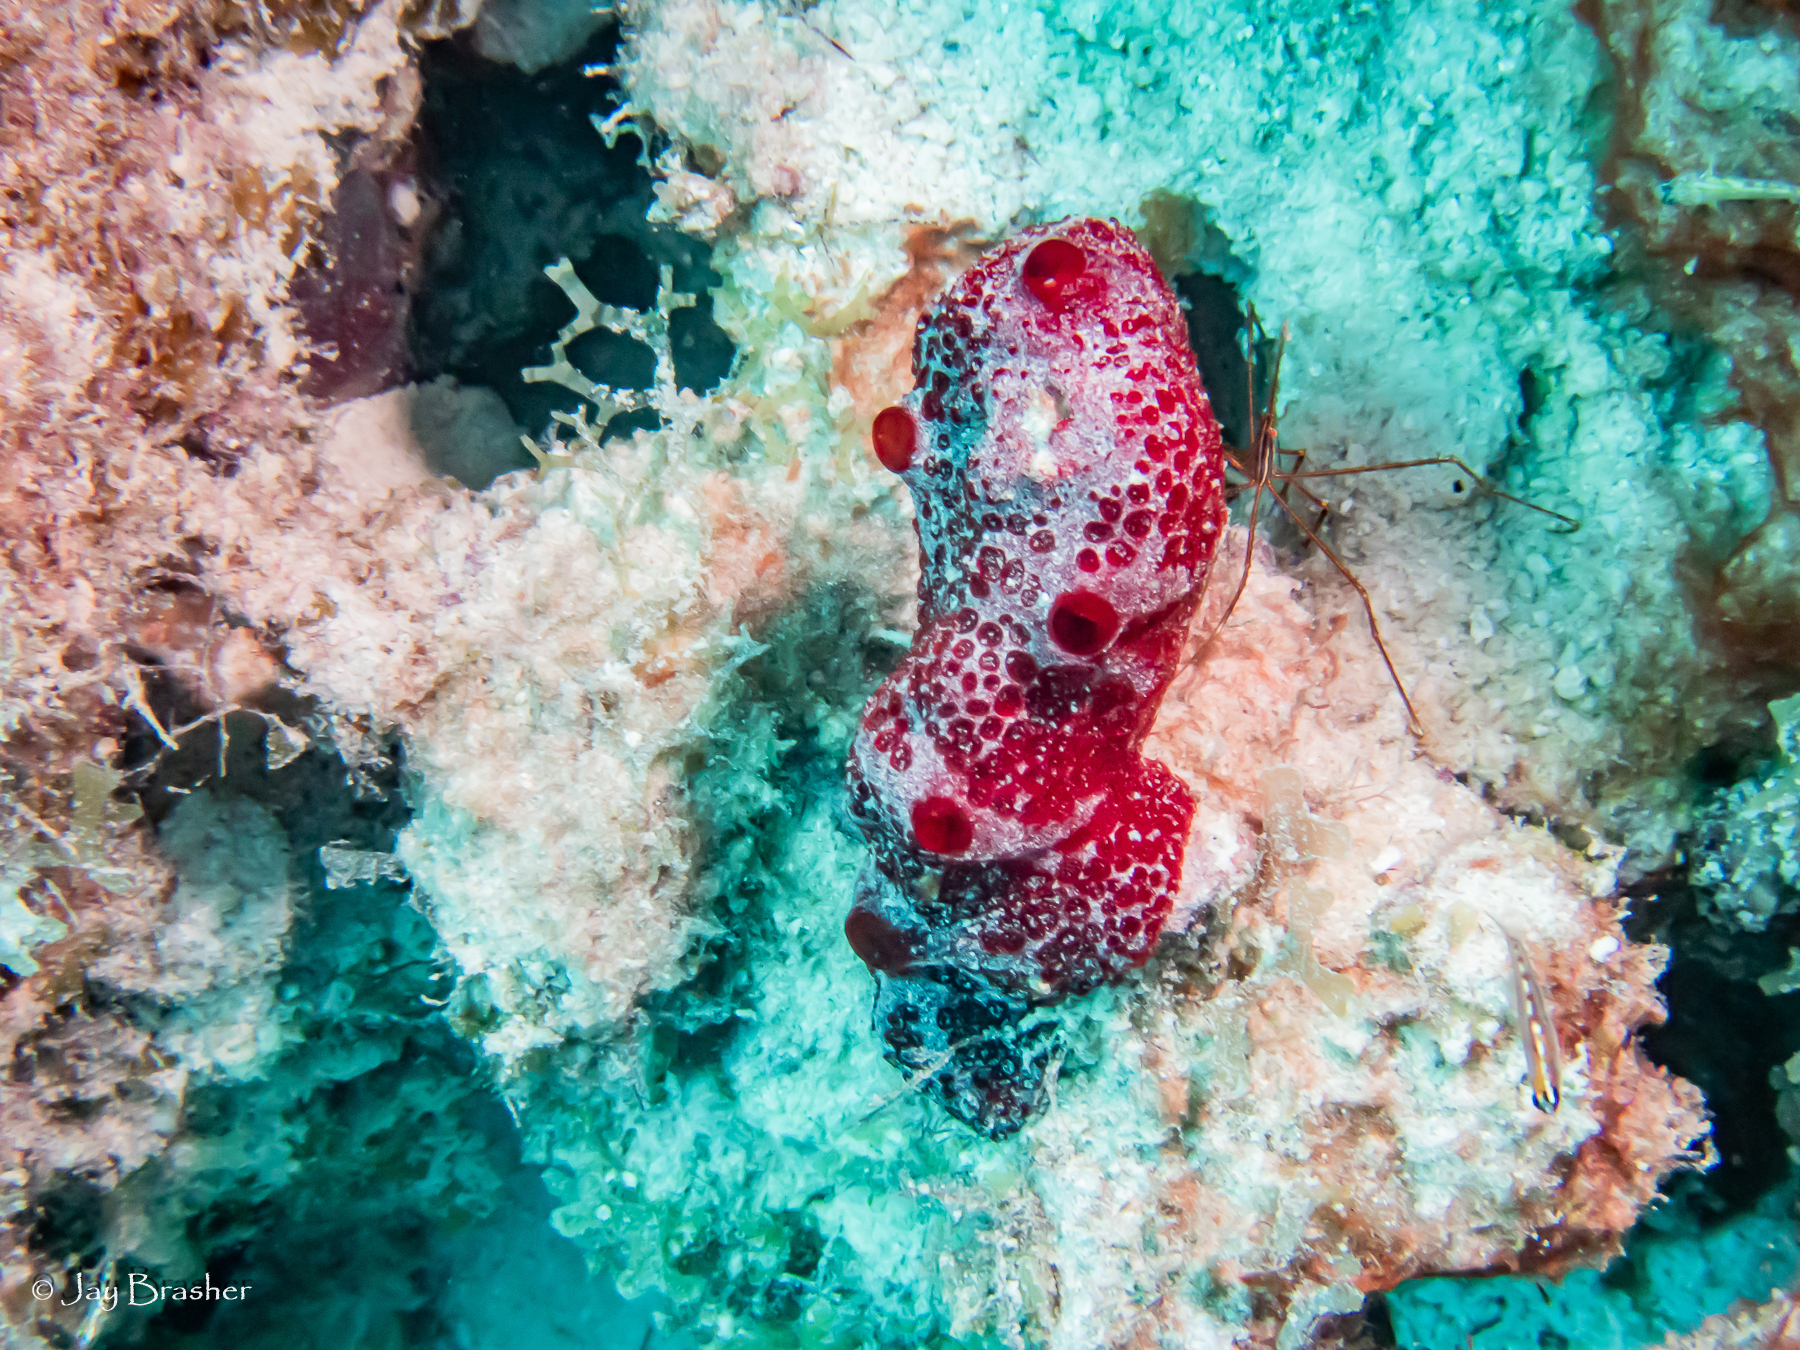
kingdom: Animalia
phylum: Porifera
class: Demospongiae
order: Poecilosclerida
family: Hymedesmiidae
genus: Phorbas
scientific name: Phorbas amaranthus
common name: Red sieve encrusting sponge
